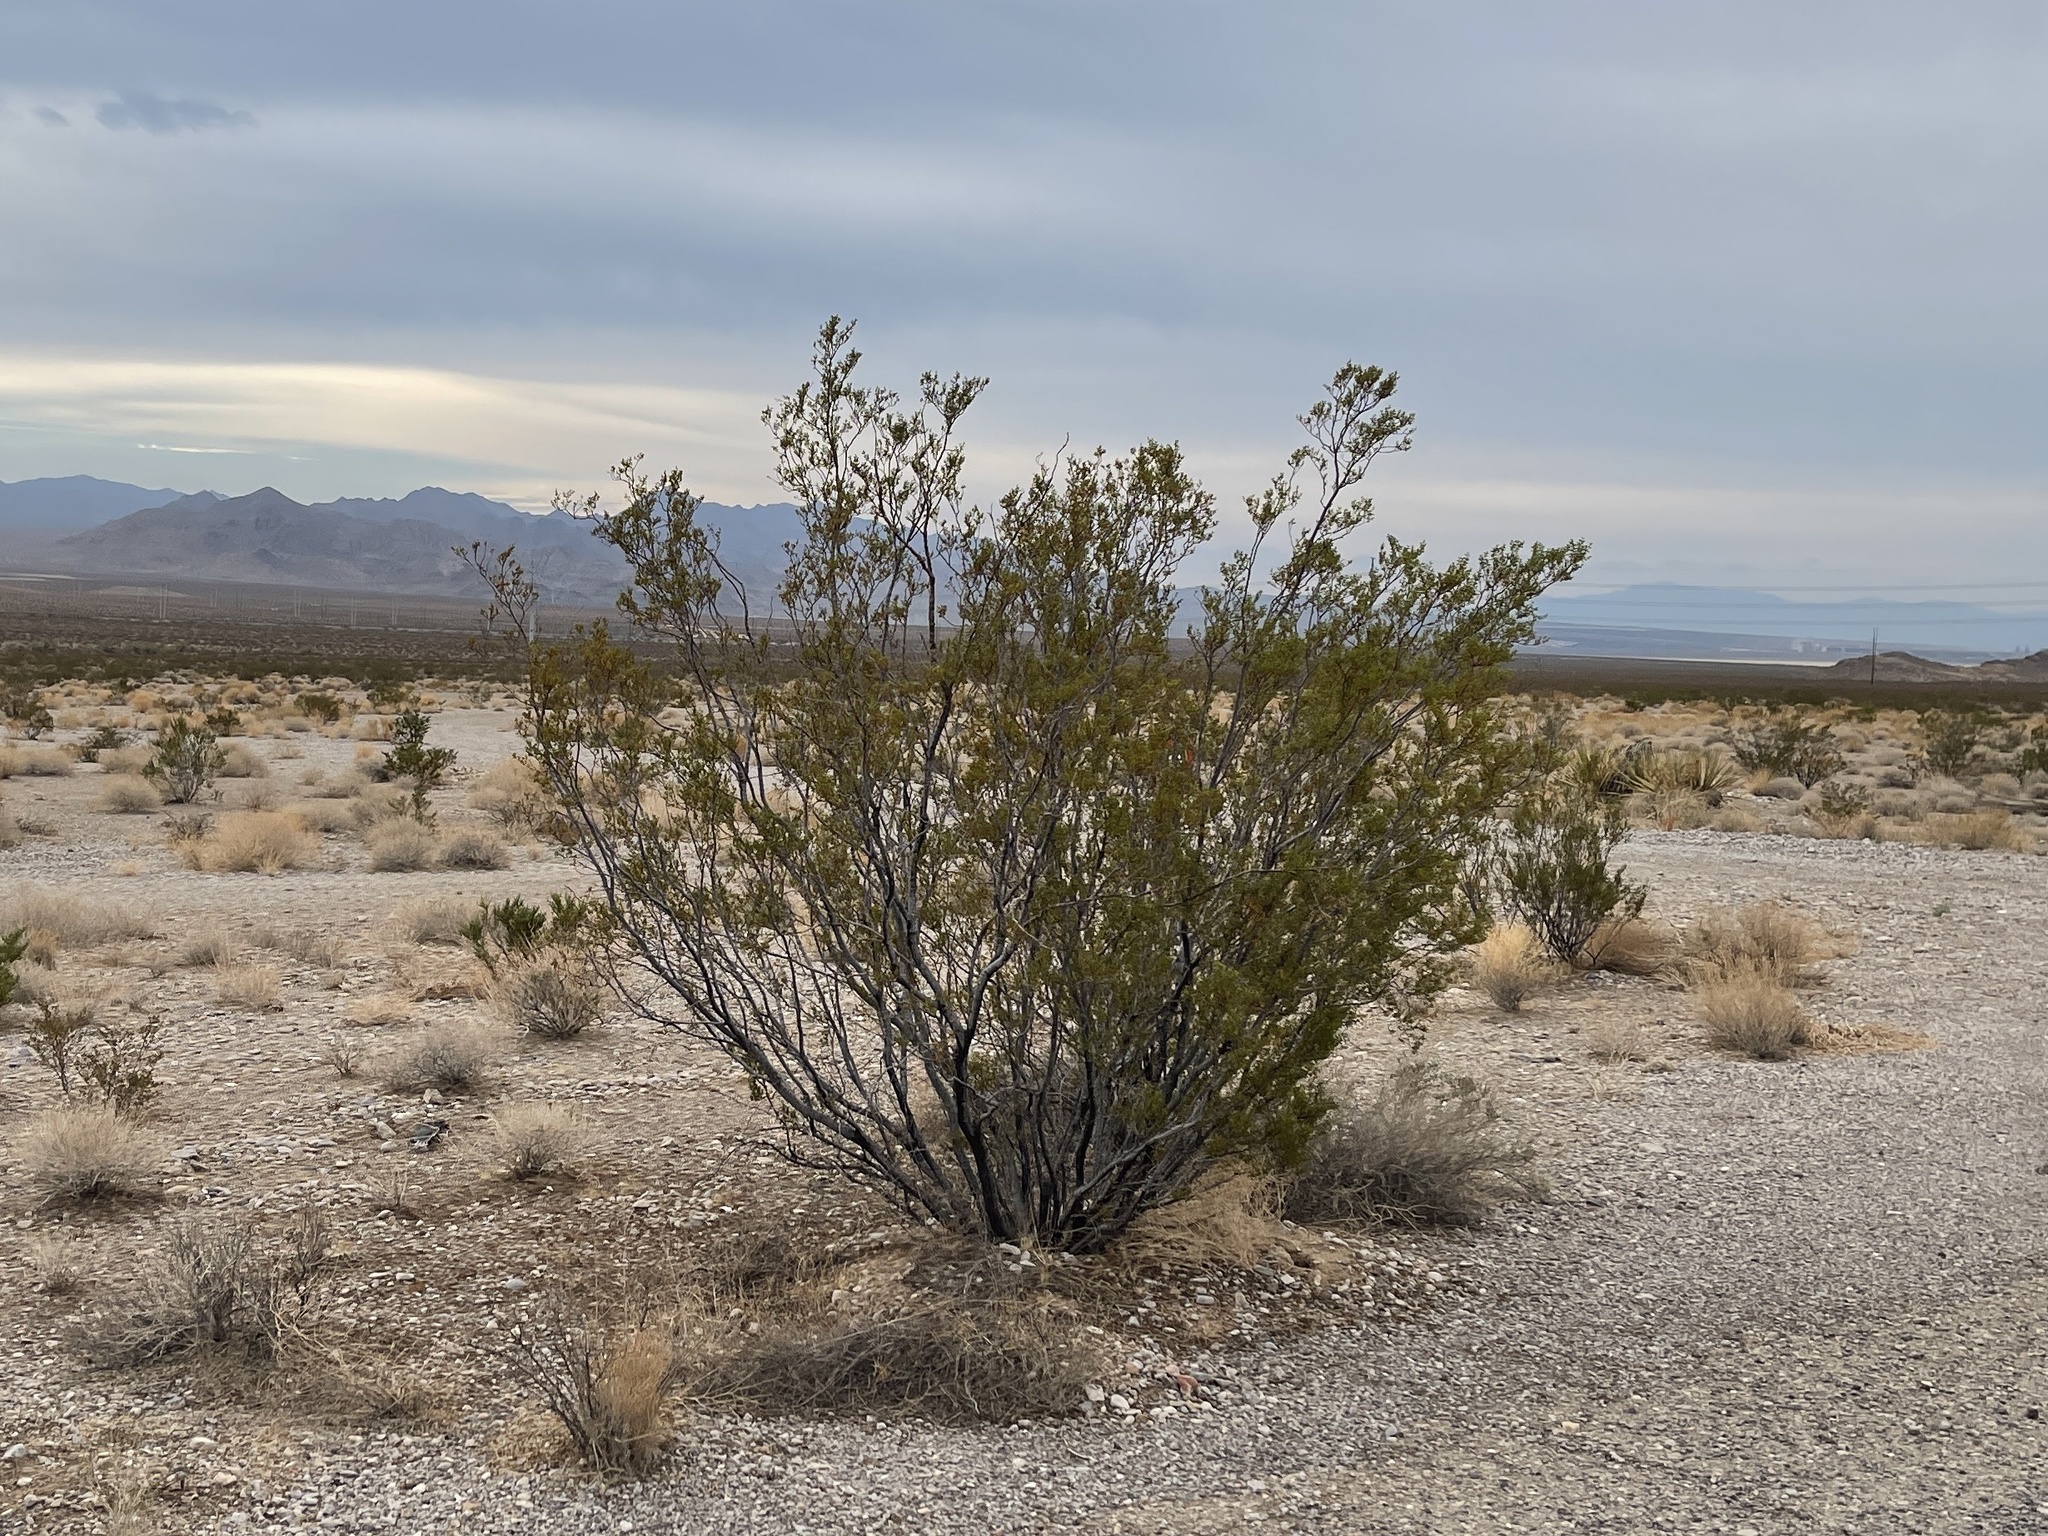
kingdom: Plantae
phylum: Tracheophyta
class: Magnoliopsida
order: Zygophyllales
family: Zygophyllaceae
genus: Larrea
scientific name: Larrea tridentata
